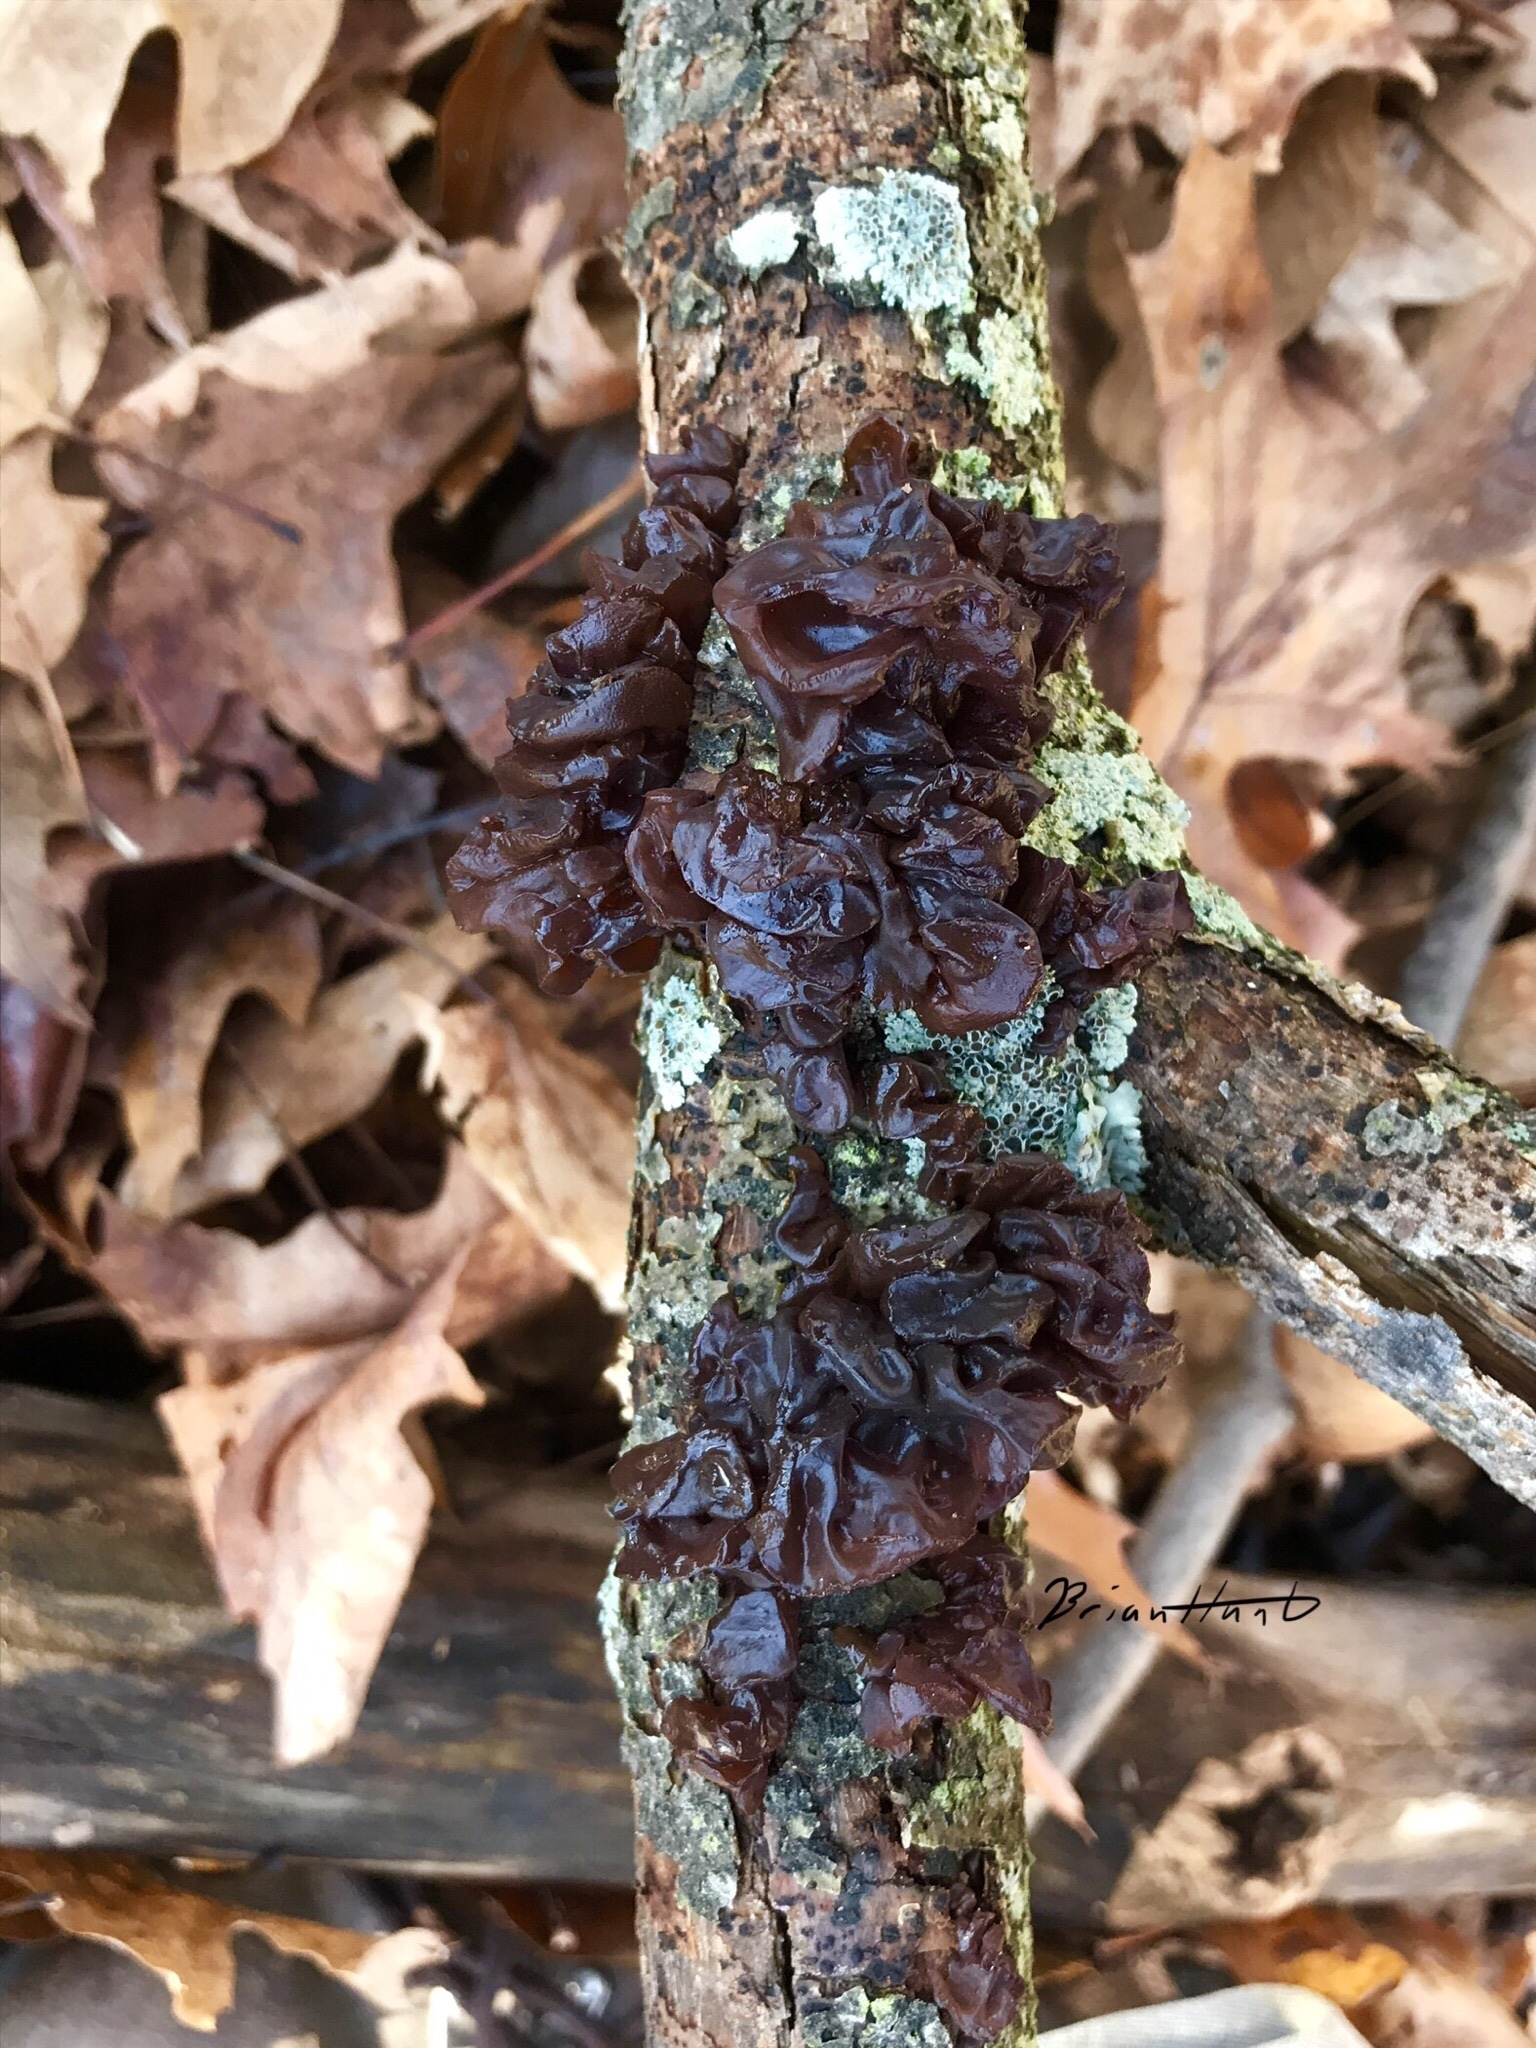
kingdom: Fungi
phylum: Basidiomycota
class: Agaricomycetes
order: Auriculariales
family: Auriculariaceae
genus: Exidia
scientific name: Exidia
